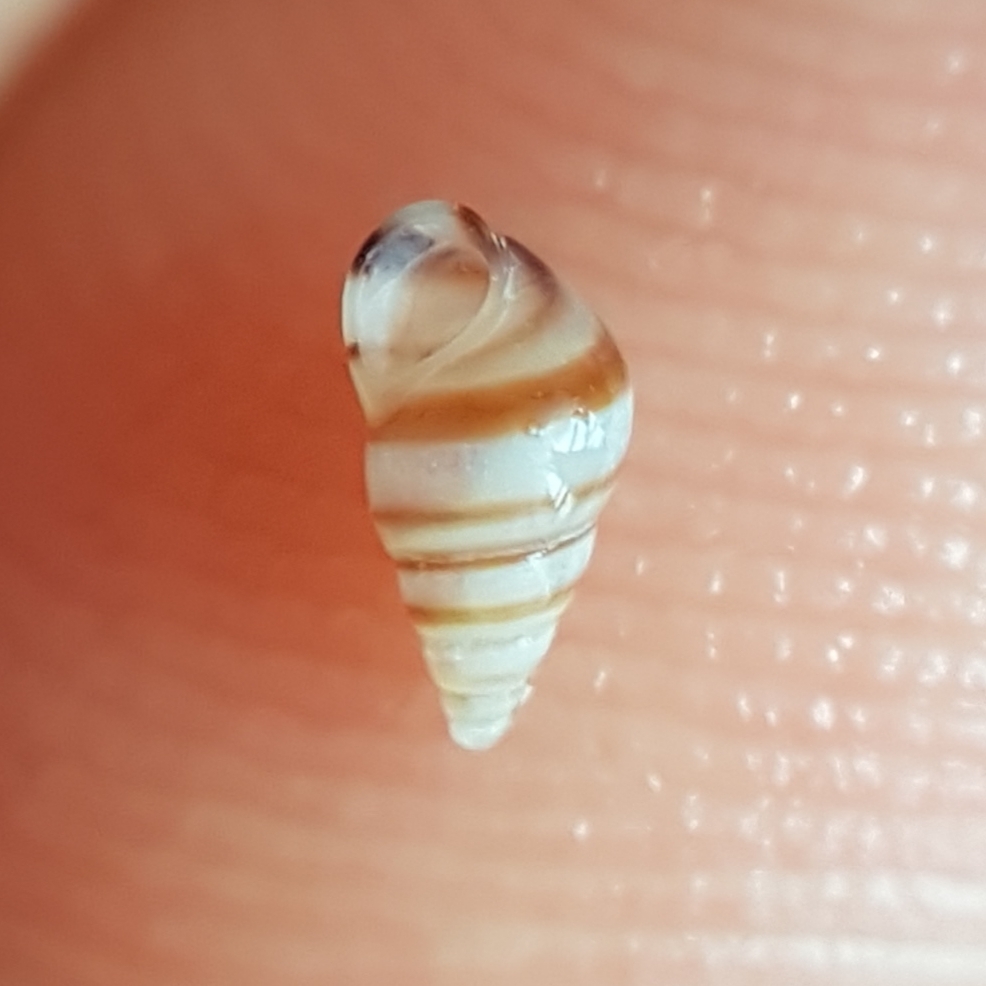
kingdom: Animalia
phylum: Mollusca
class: Gastropoda
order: Littorinimorpha
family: Rissoidae
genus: Cingula
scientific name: Cingula trifasciata
